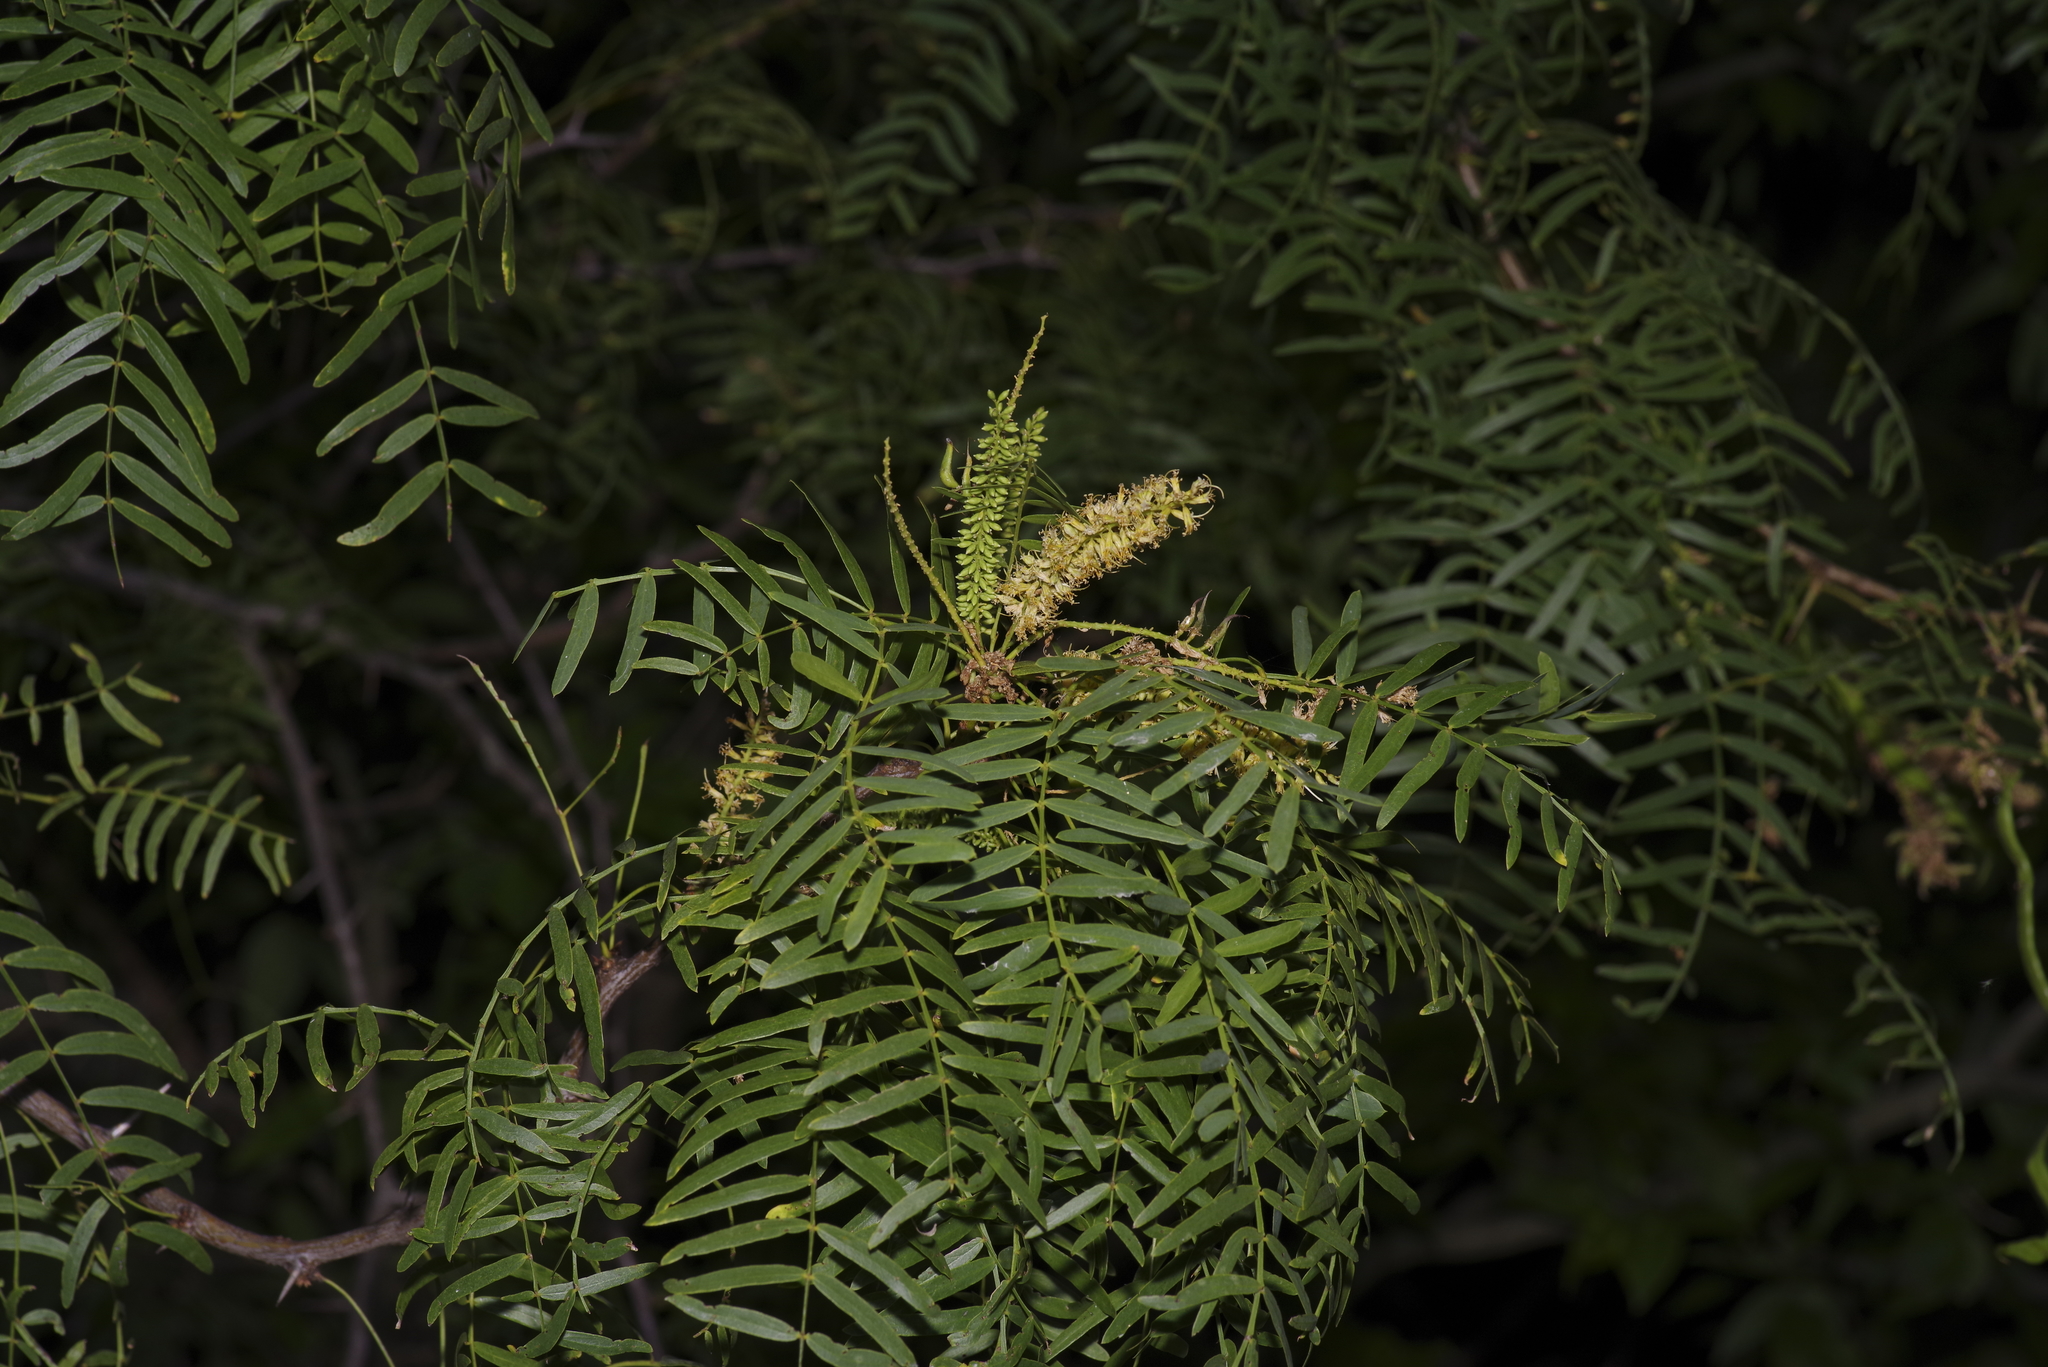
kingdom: Plantae
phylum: Tracheophyta
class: Magnoliopsida
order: Fabales
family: Fabaceae
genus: Prosopis
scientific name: Prosopis glandulosa
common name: Honey mesquite
